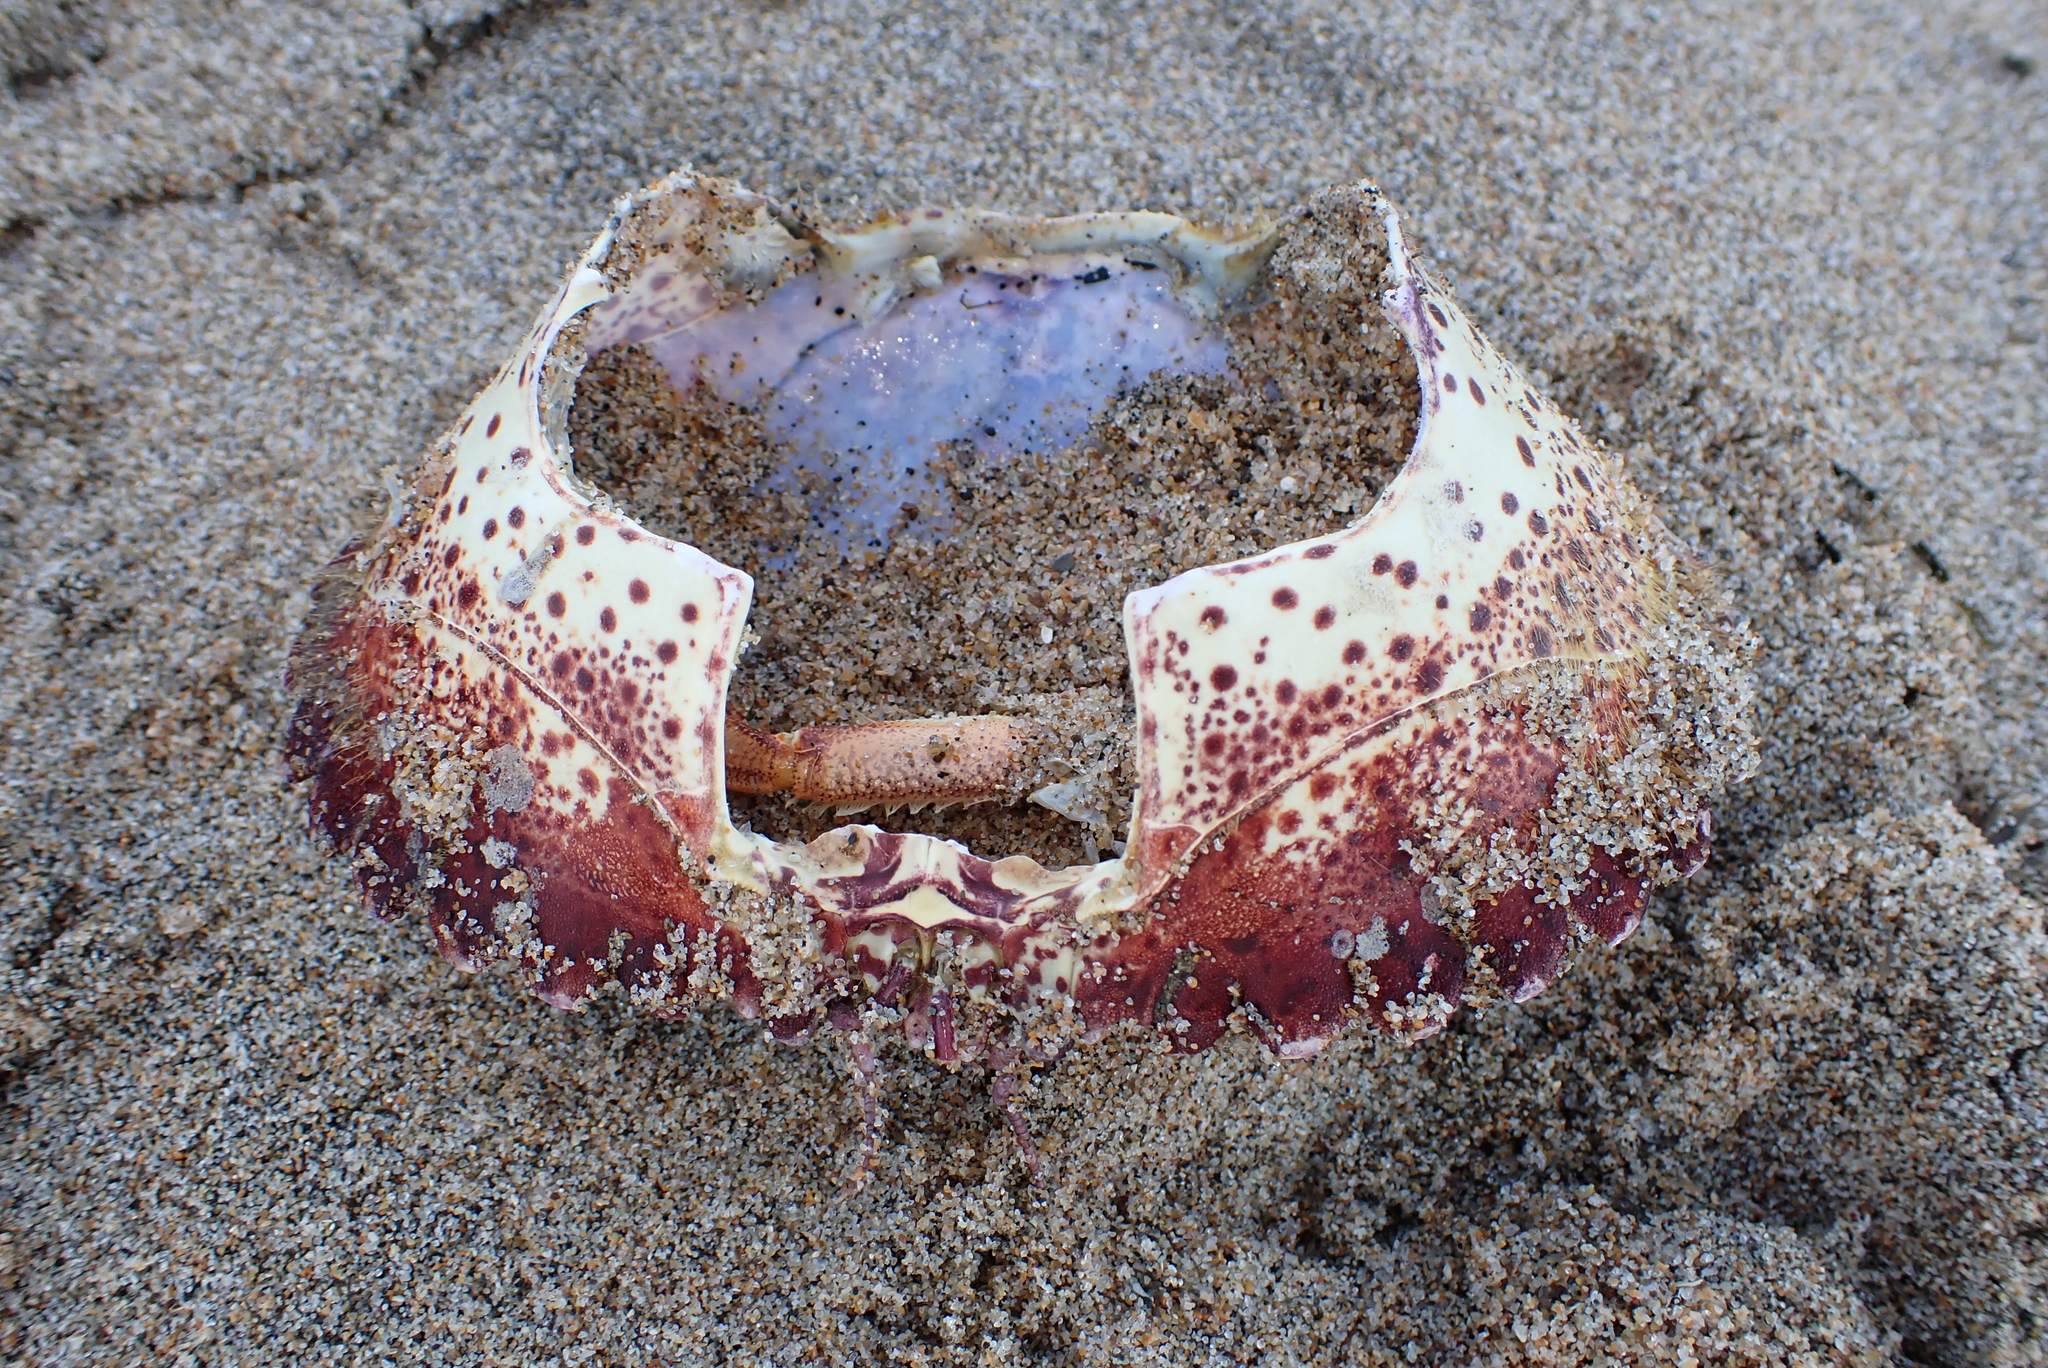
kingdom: Animalia
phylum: Arthropoda
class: Malacostraca
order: Decapoda
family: Cancridae
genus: Romaleon
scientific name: Romaleon antennarium
